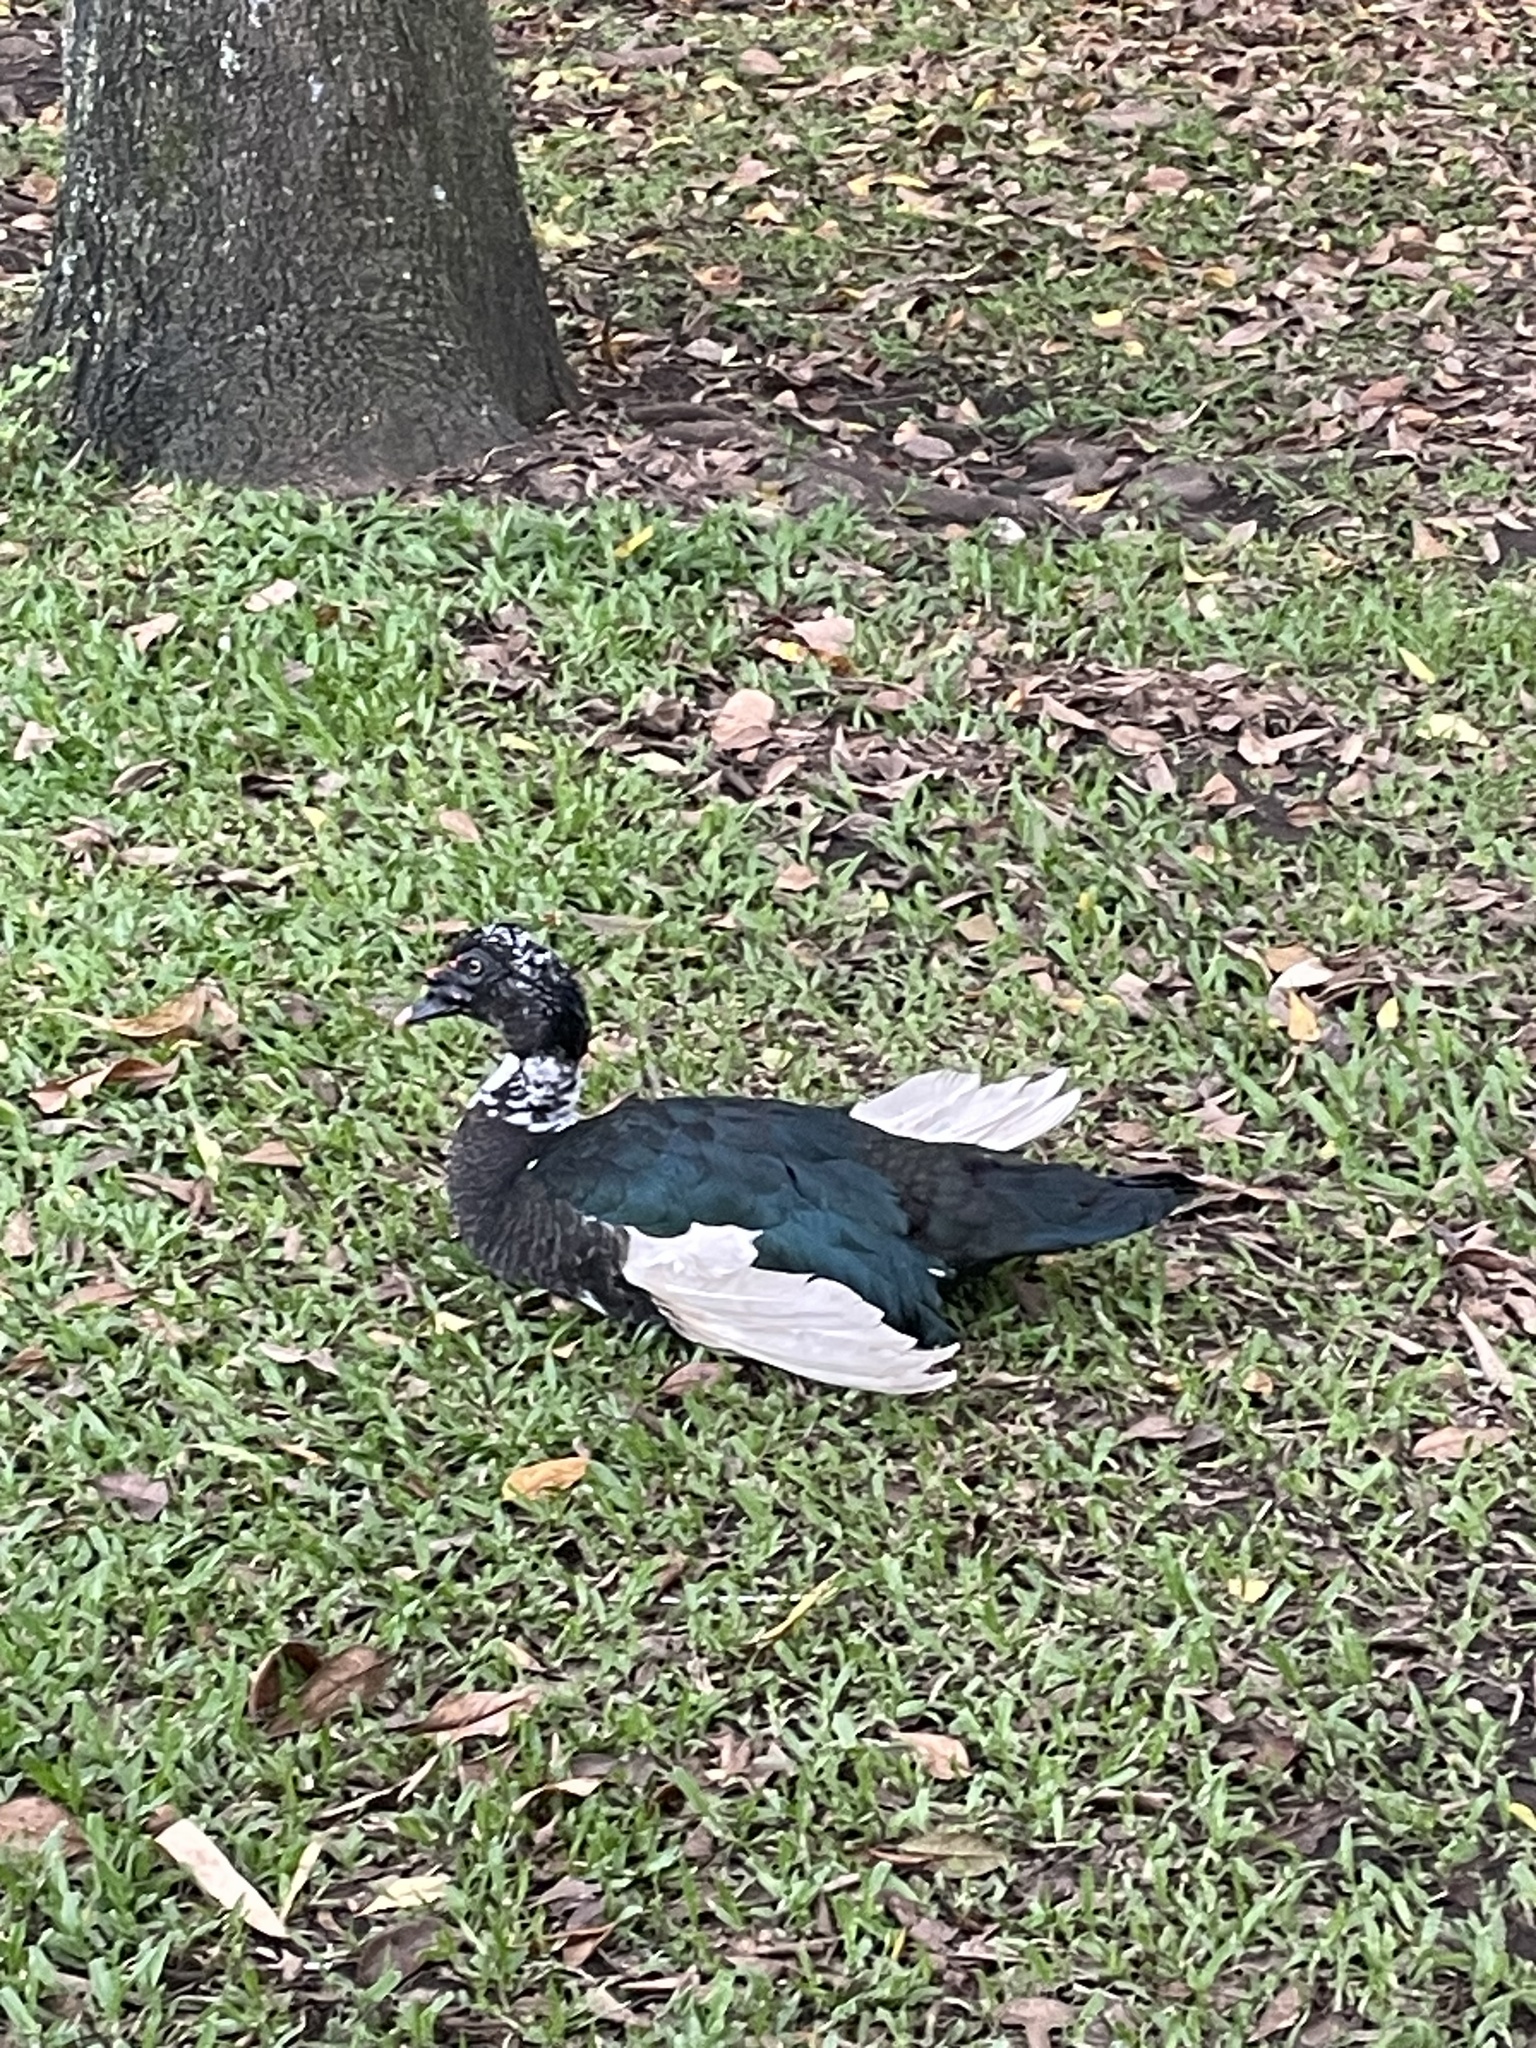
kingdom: Animalia
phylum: Chordata
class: Aves
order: Anseriformes
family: Anatidae
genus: Cairina
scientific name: Cairina moschata
